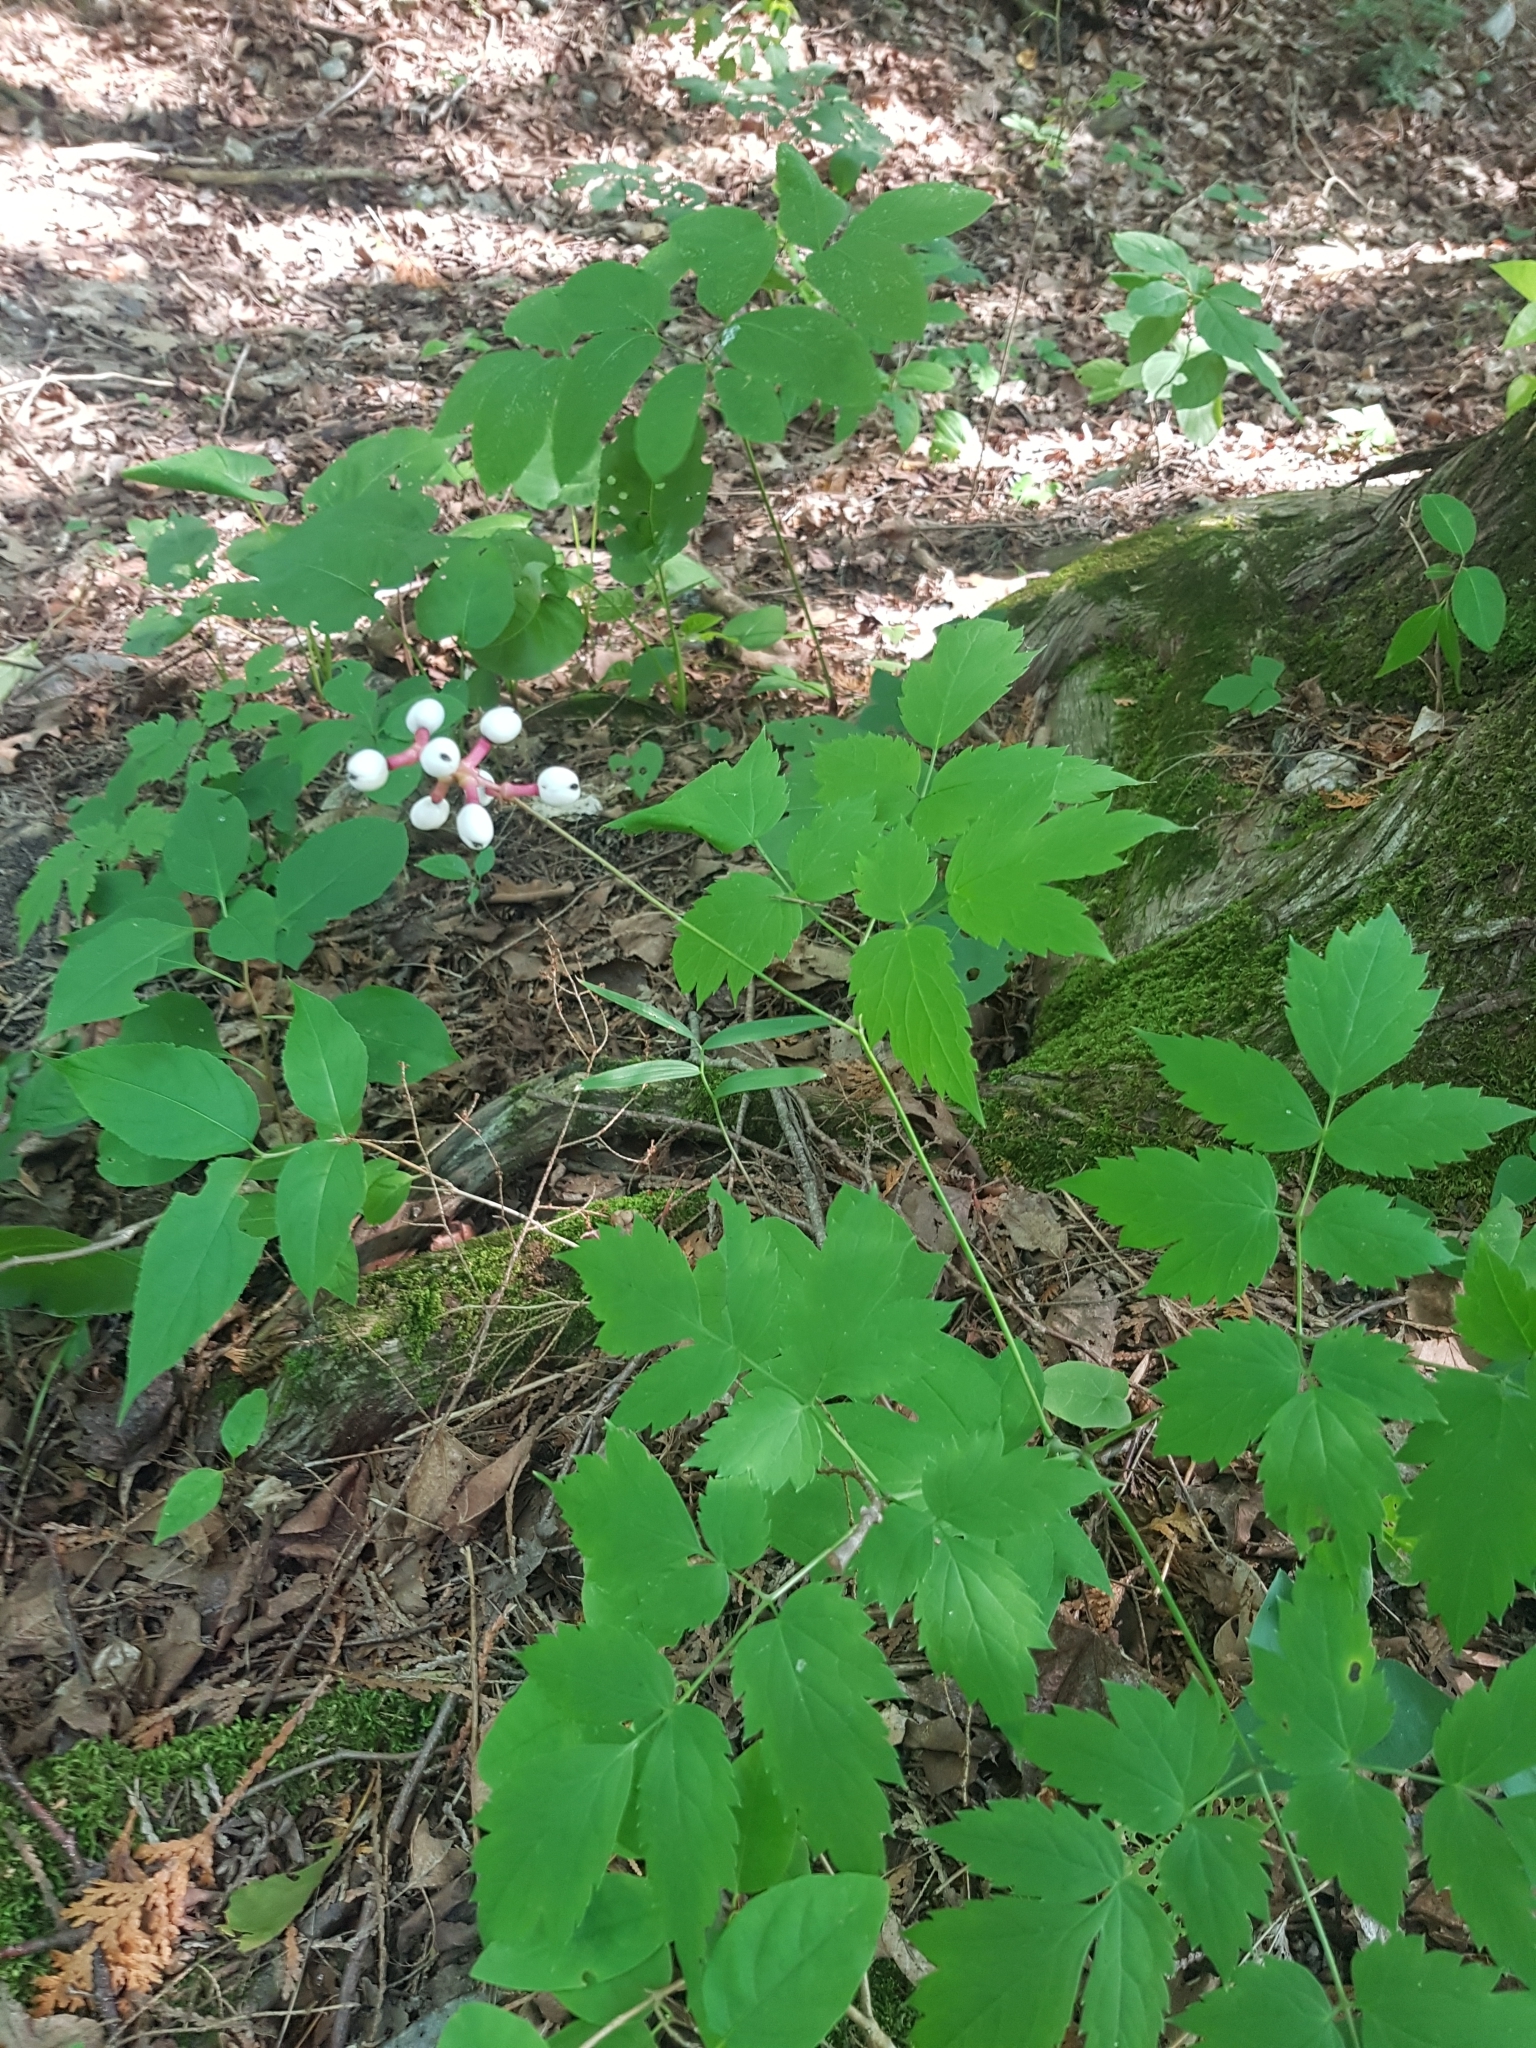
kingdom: Plantae
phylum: Tracheophyta
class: Magnoliopsida
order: Ranunculales
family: Ranunculaceae
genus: Actaea
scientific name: Actaea pachypoda
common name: Doll's-eyes
